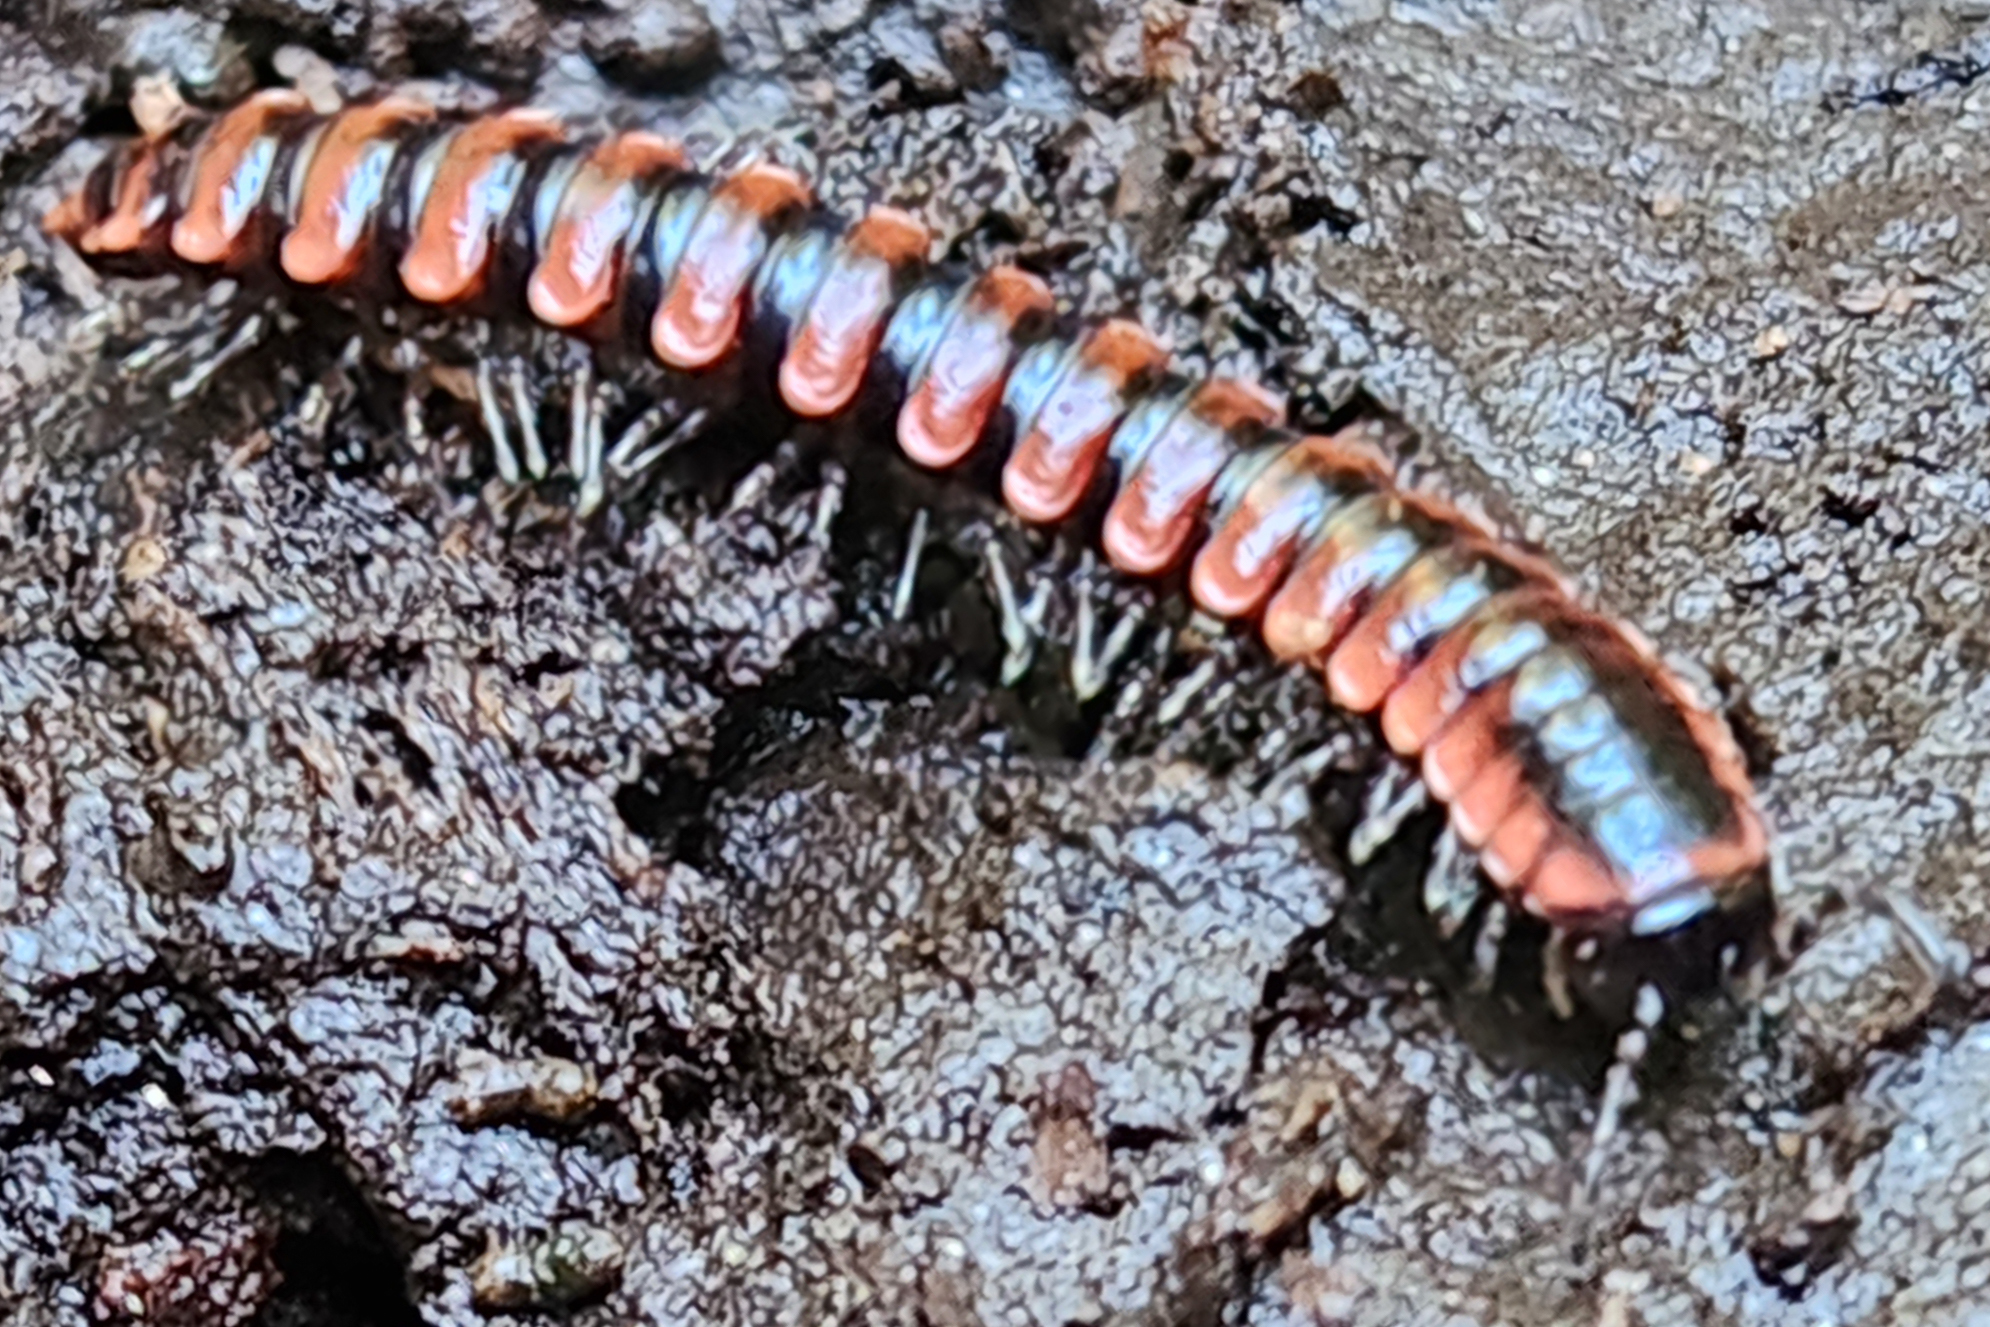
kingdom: Animalia
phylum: Arthropoda
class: Diplopoda
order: Polydesmida
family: Xystodesmidae
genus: Montaphe
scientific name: Montaphe elrodi
